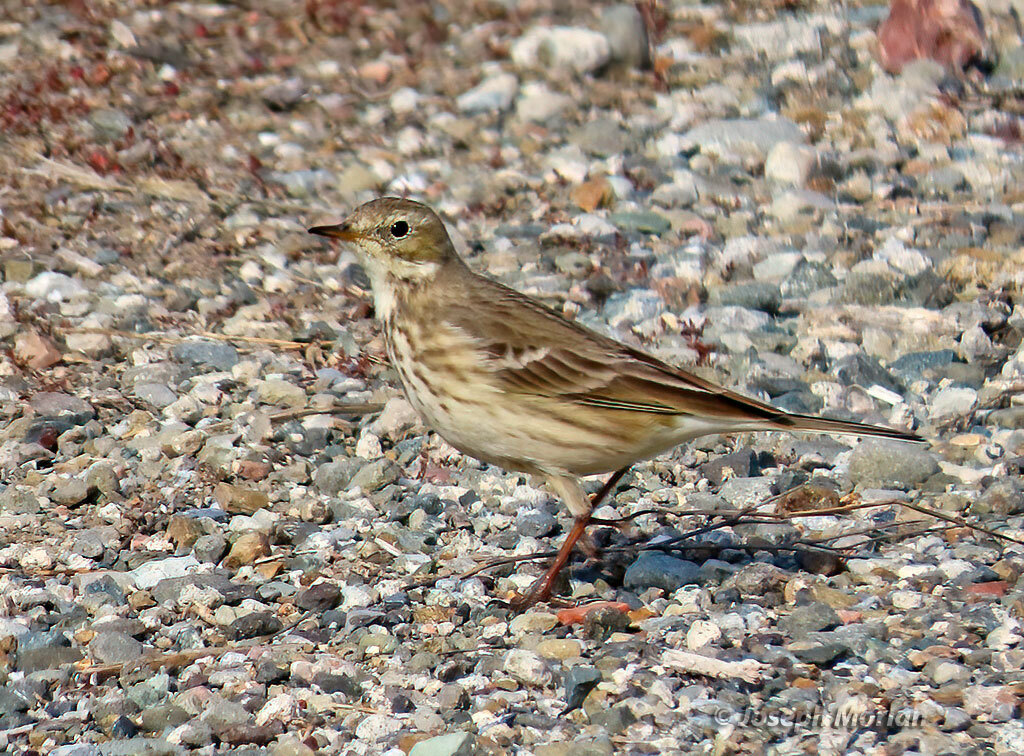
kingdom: Animalia
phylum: Chordata
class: Aves
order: Passeriformes
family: Motacillidae
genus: Anthus
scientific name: Anthus rubescens
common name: Buff-bellied pipit
